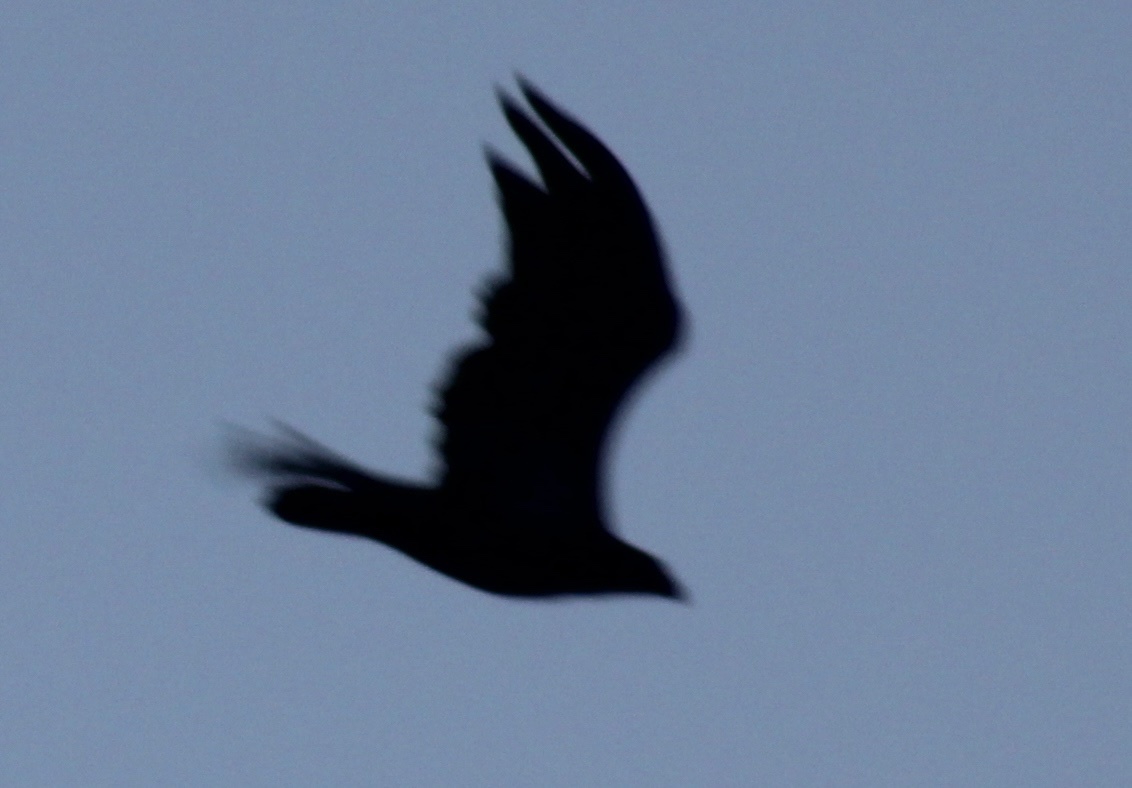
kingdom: Animalia
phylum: Chordata
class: Aves
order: Accipitriformes
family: Accipitridae
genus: Haliaeetus
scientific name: Haliaeetus leucocephalus
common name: Bald eagle
